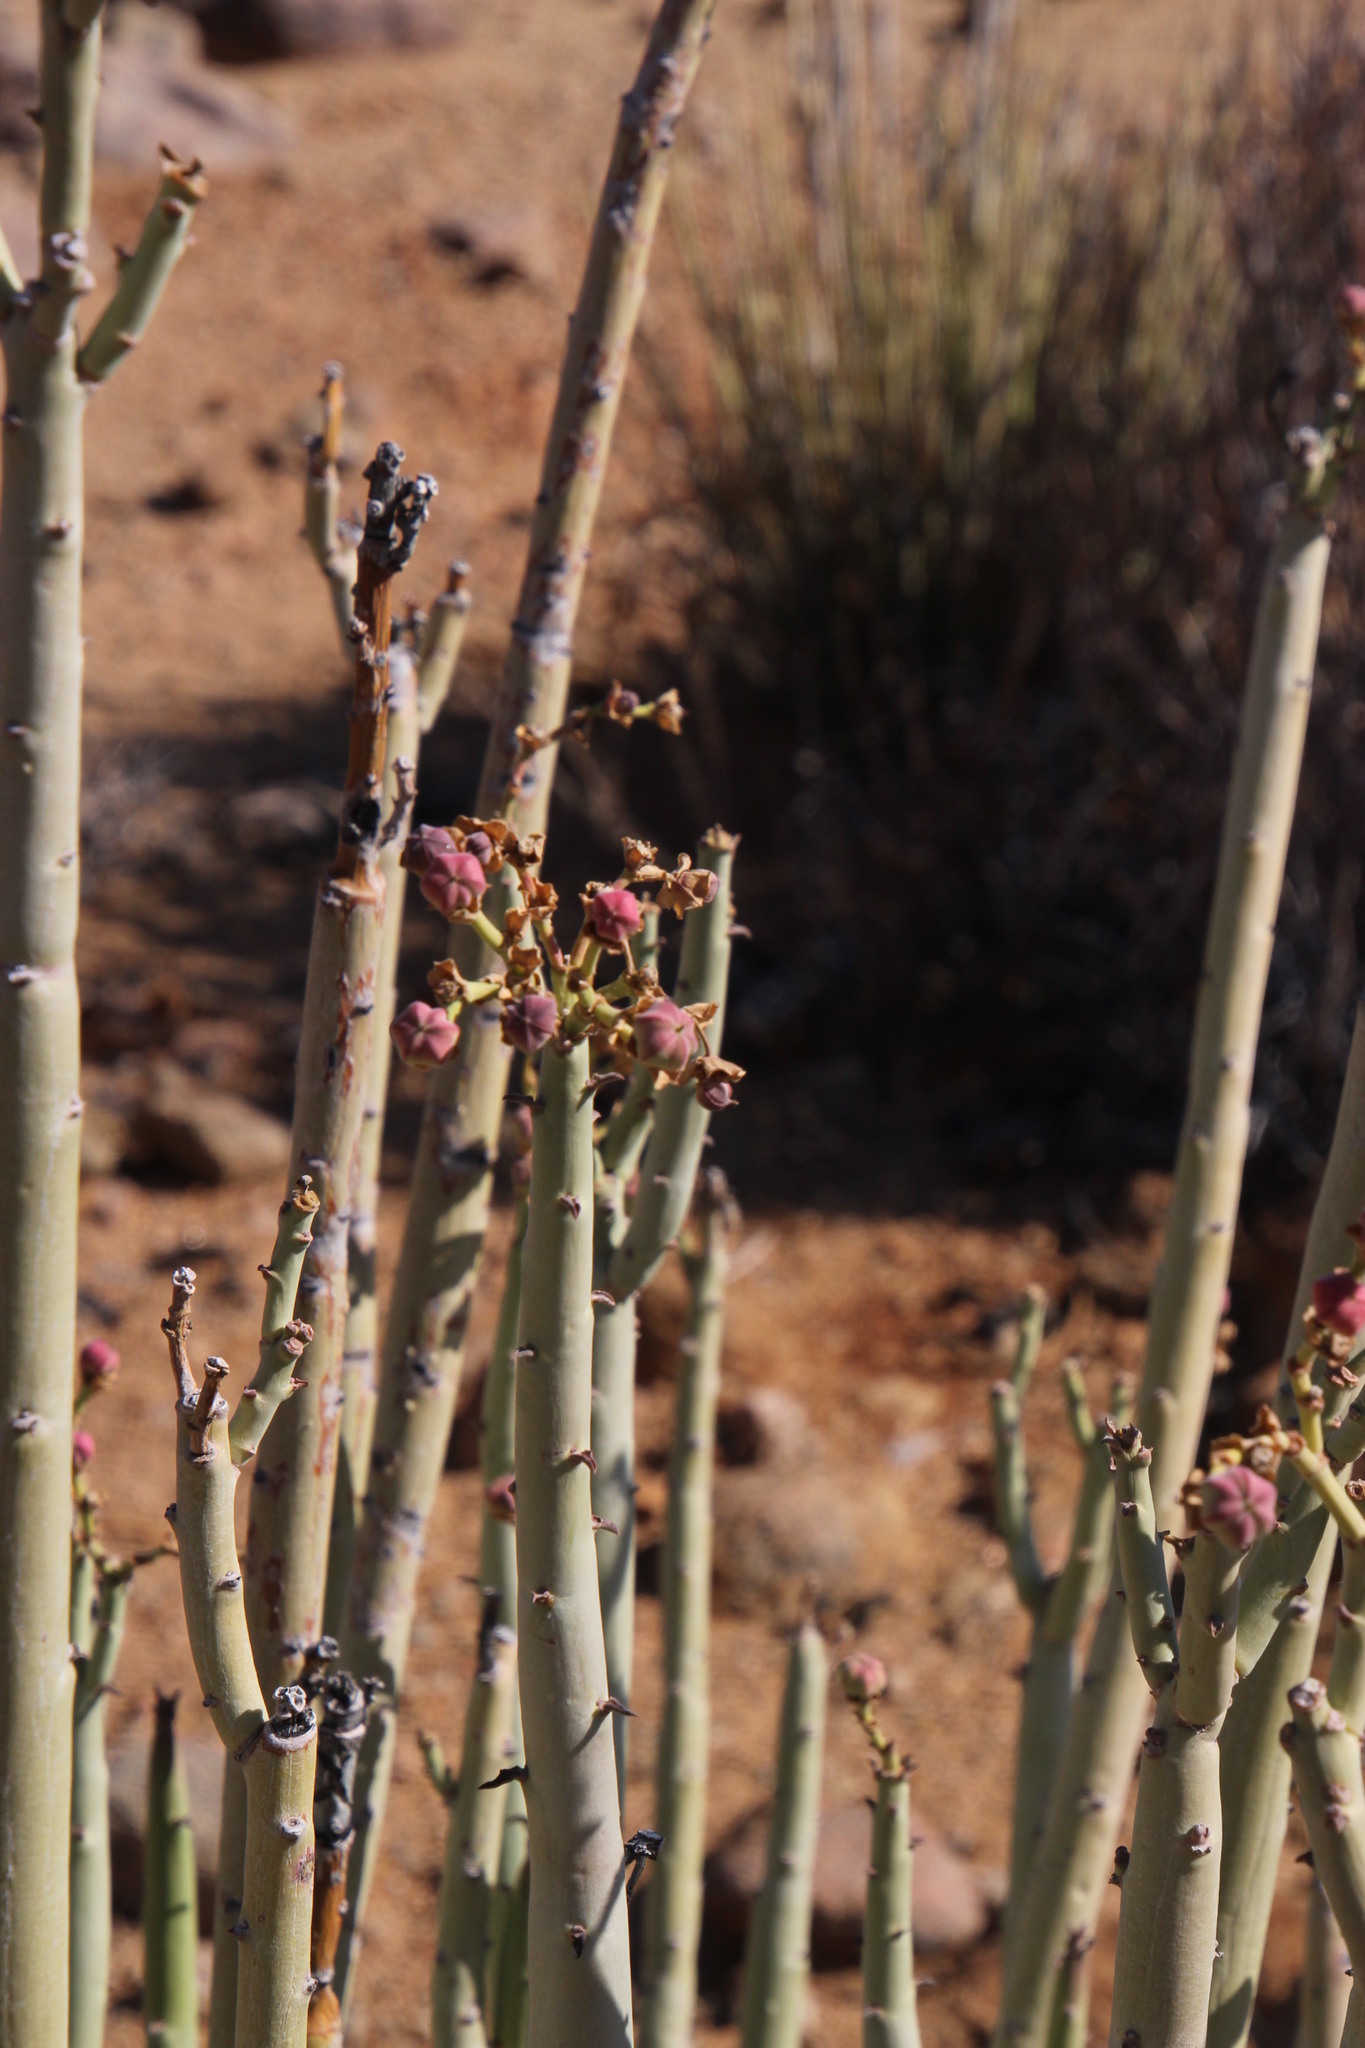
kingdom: Plantae
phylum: Tracheophyta
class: Magnoliopsida
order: Malpighiales
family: Euphorbiaceae
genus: Euphorbia
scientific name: Euphorbia dregeana
